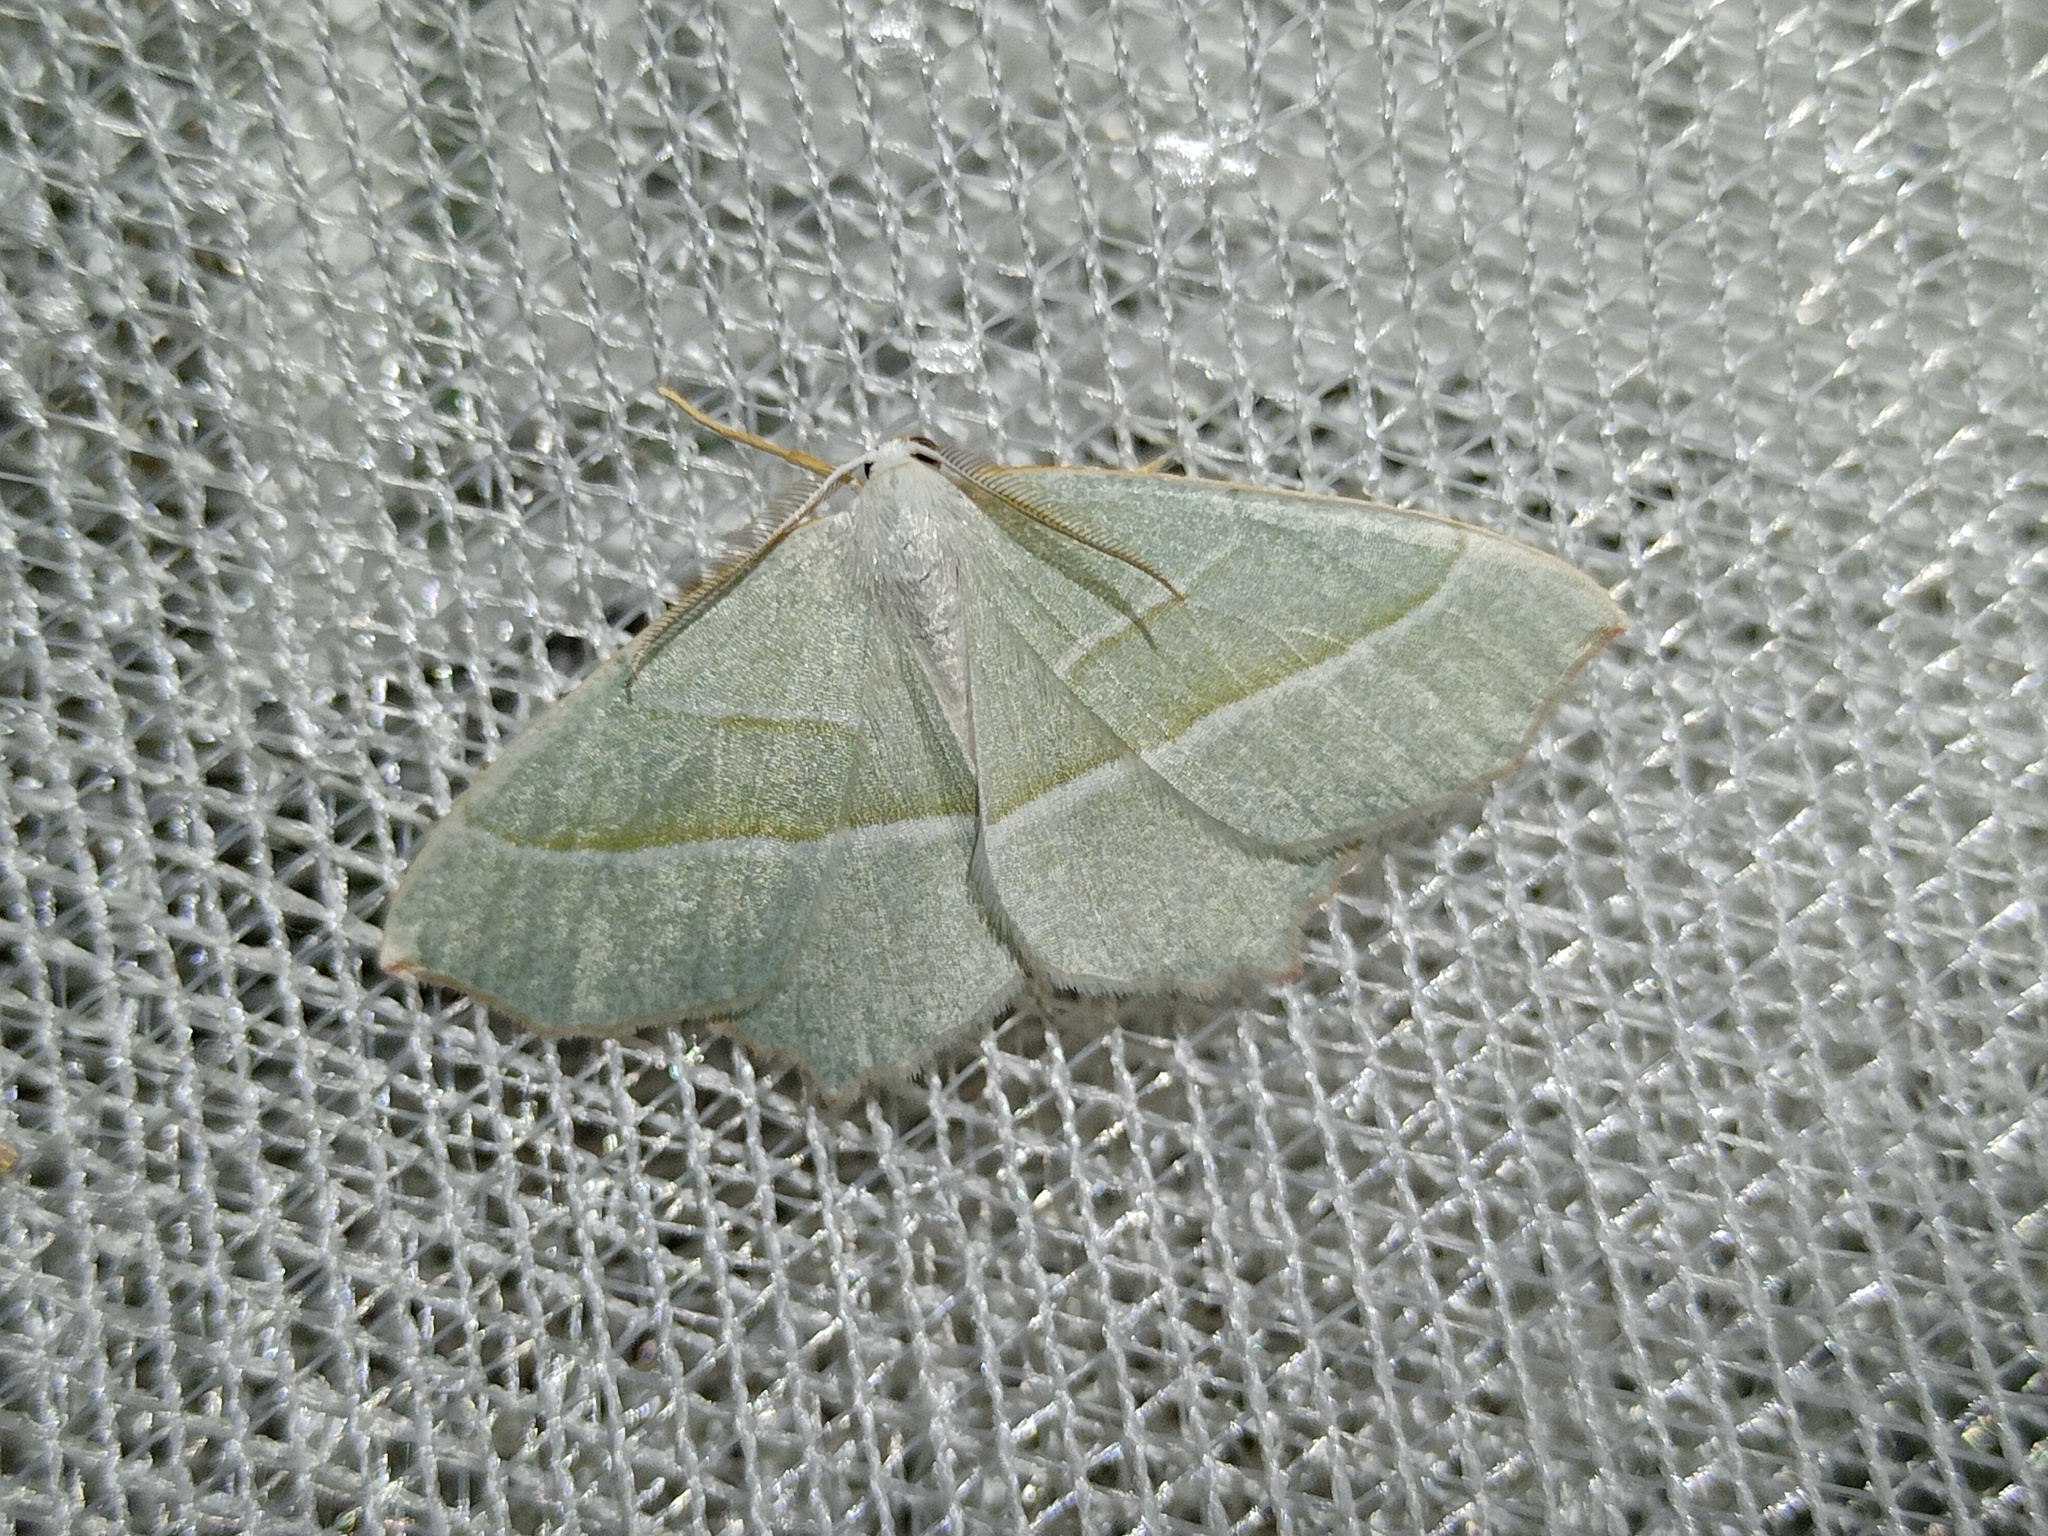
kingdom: Animalia
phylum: Arthropoda
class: Insecta
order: Lepidoptera
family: Geometridae
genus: Campaea
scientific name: Campaea margaritaria
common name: Light emerald
